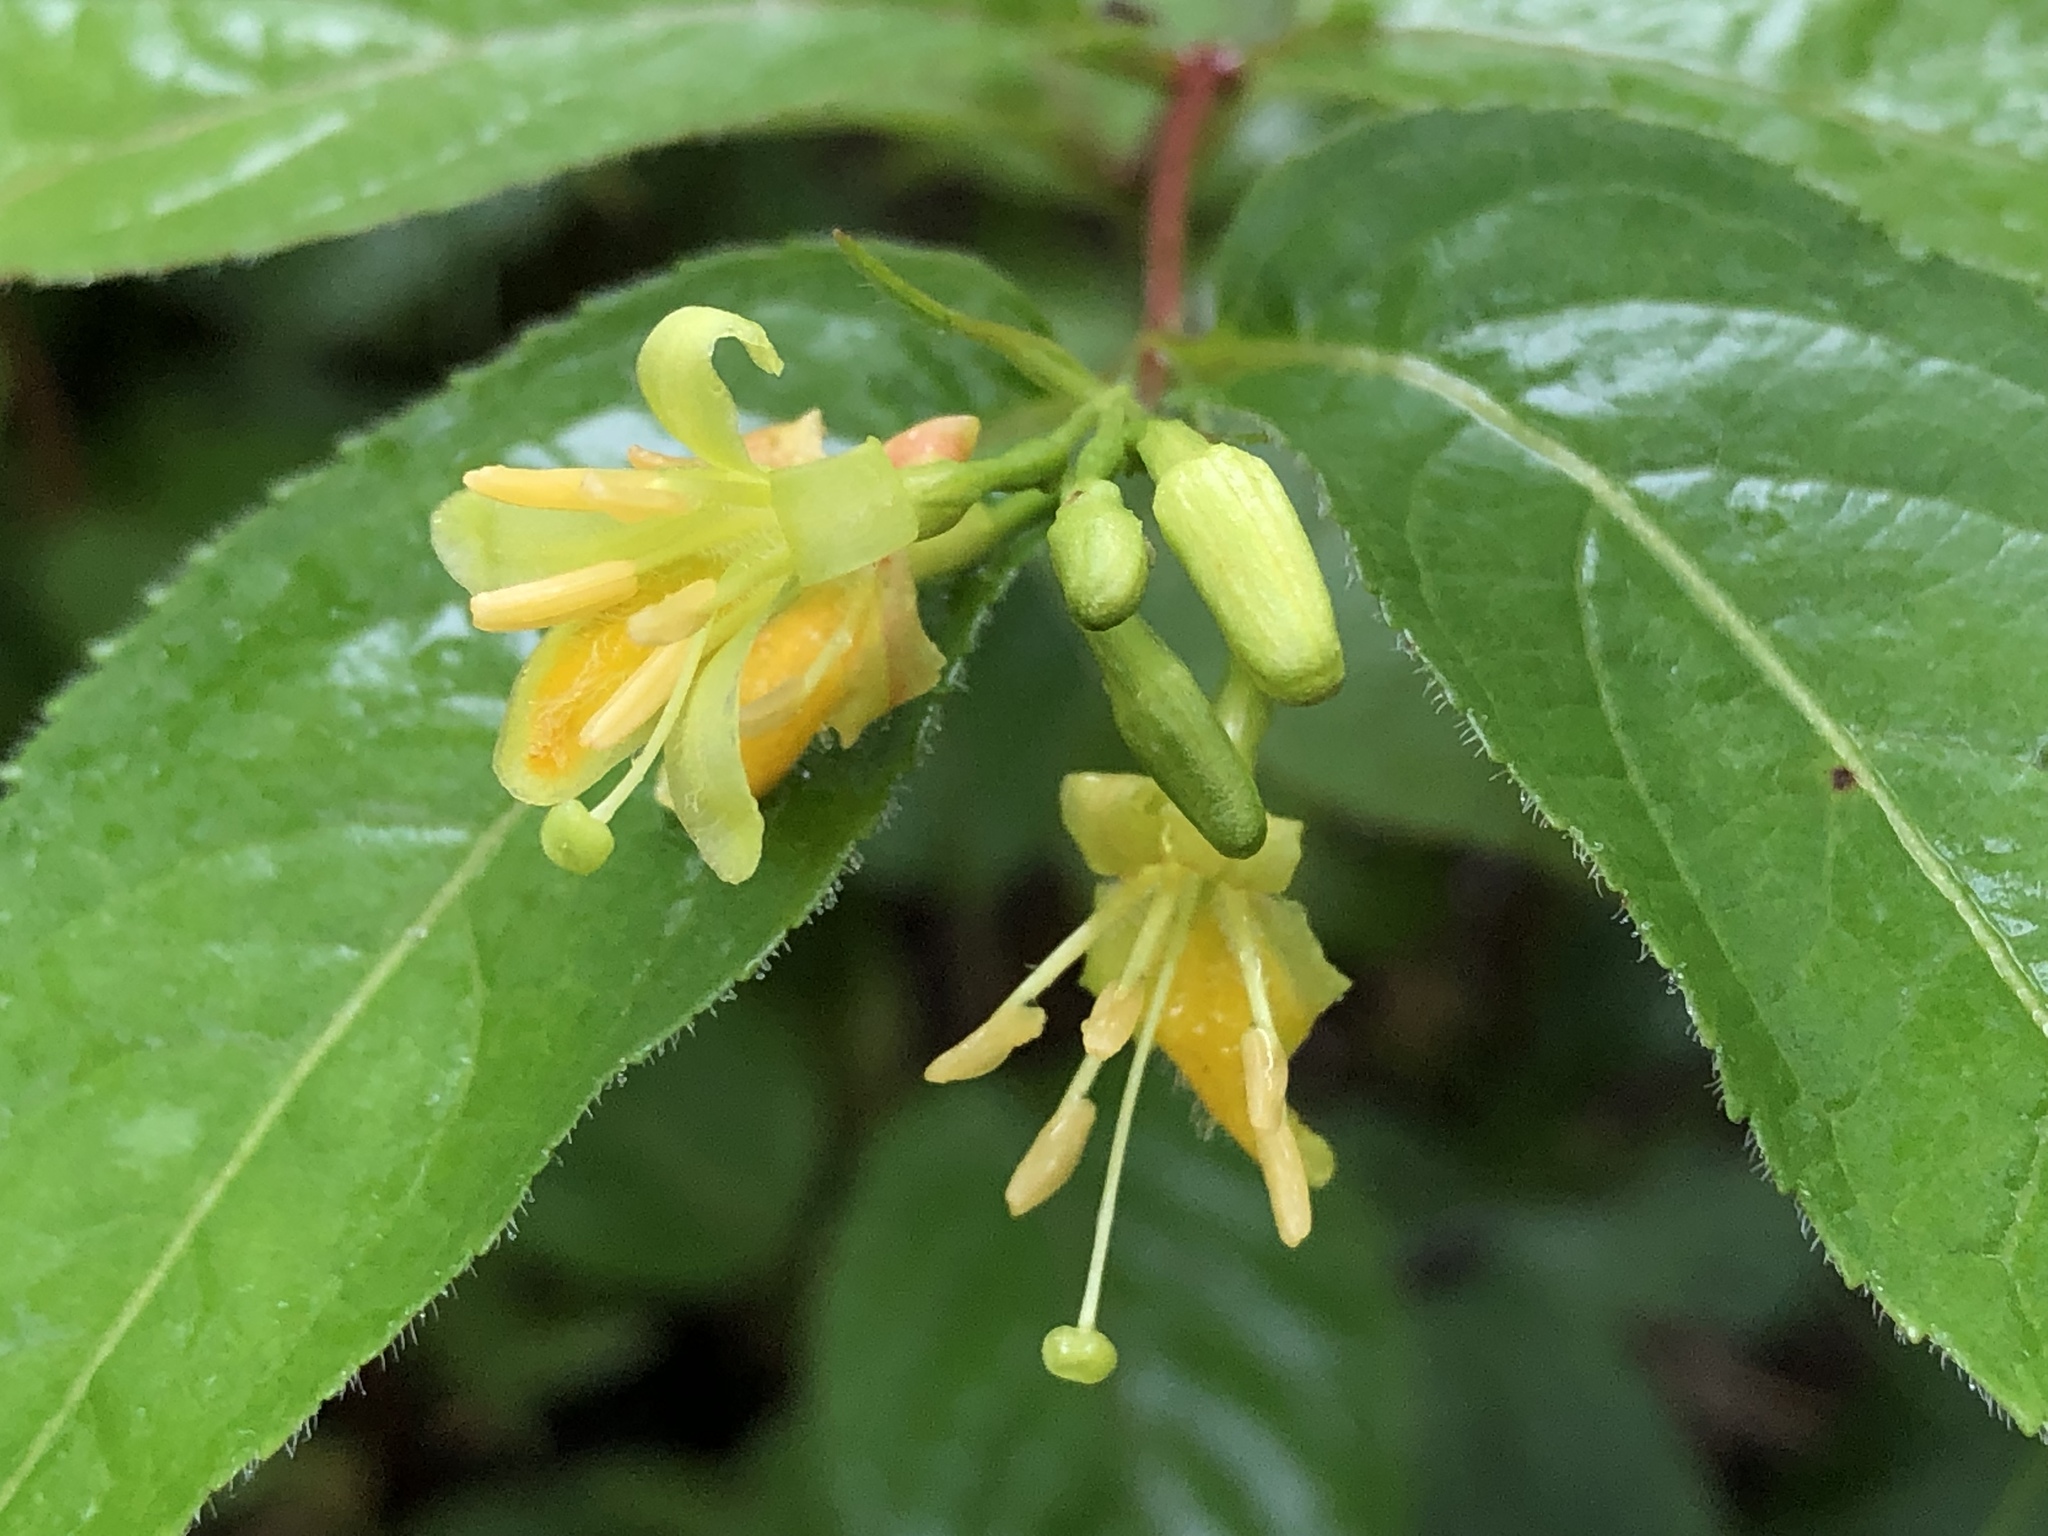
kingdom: Plantae
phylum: Tracheophyta
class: Magnoliopsida
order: Dipsacales
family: Caprifoliaceae
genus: Diervilla
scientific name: Diervilla lonicera
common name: Bush-honeysuckle
